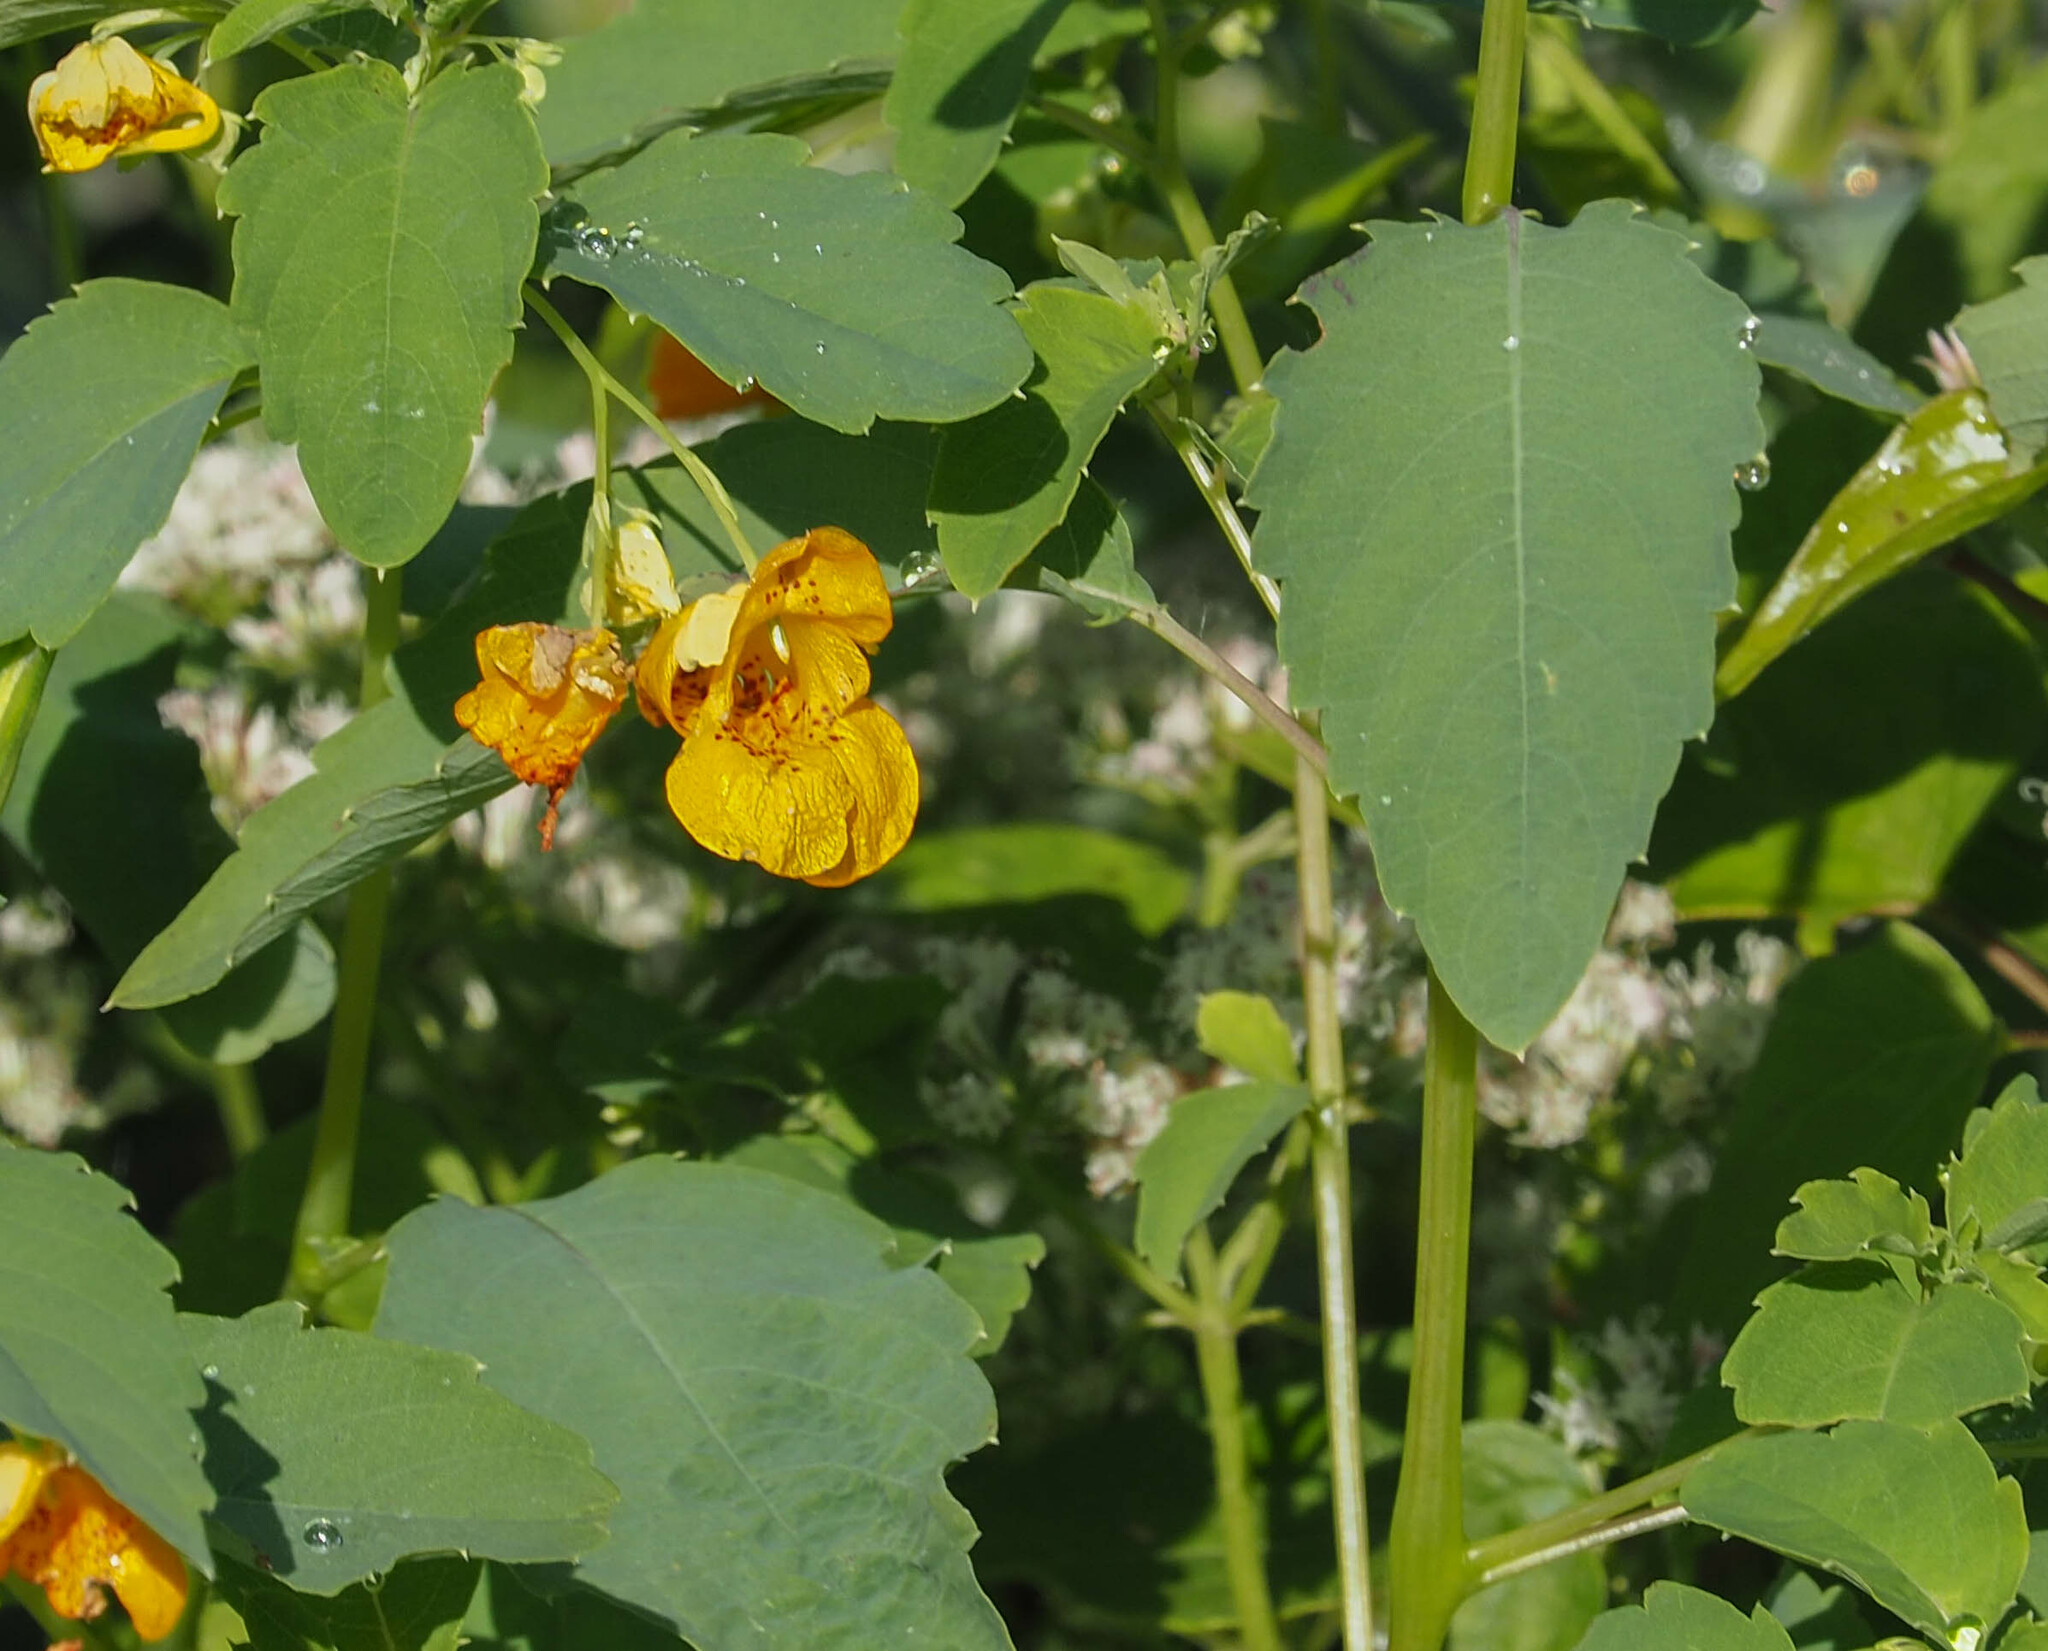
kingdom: Plantae
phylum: Tracheophyta
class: Magnoliopsida
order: Ericales
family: Balsaminaceae
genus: Impatiens
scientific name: Impatiens capensis
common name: Orange balsam
